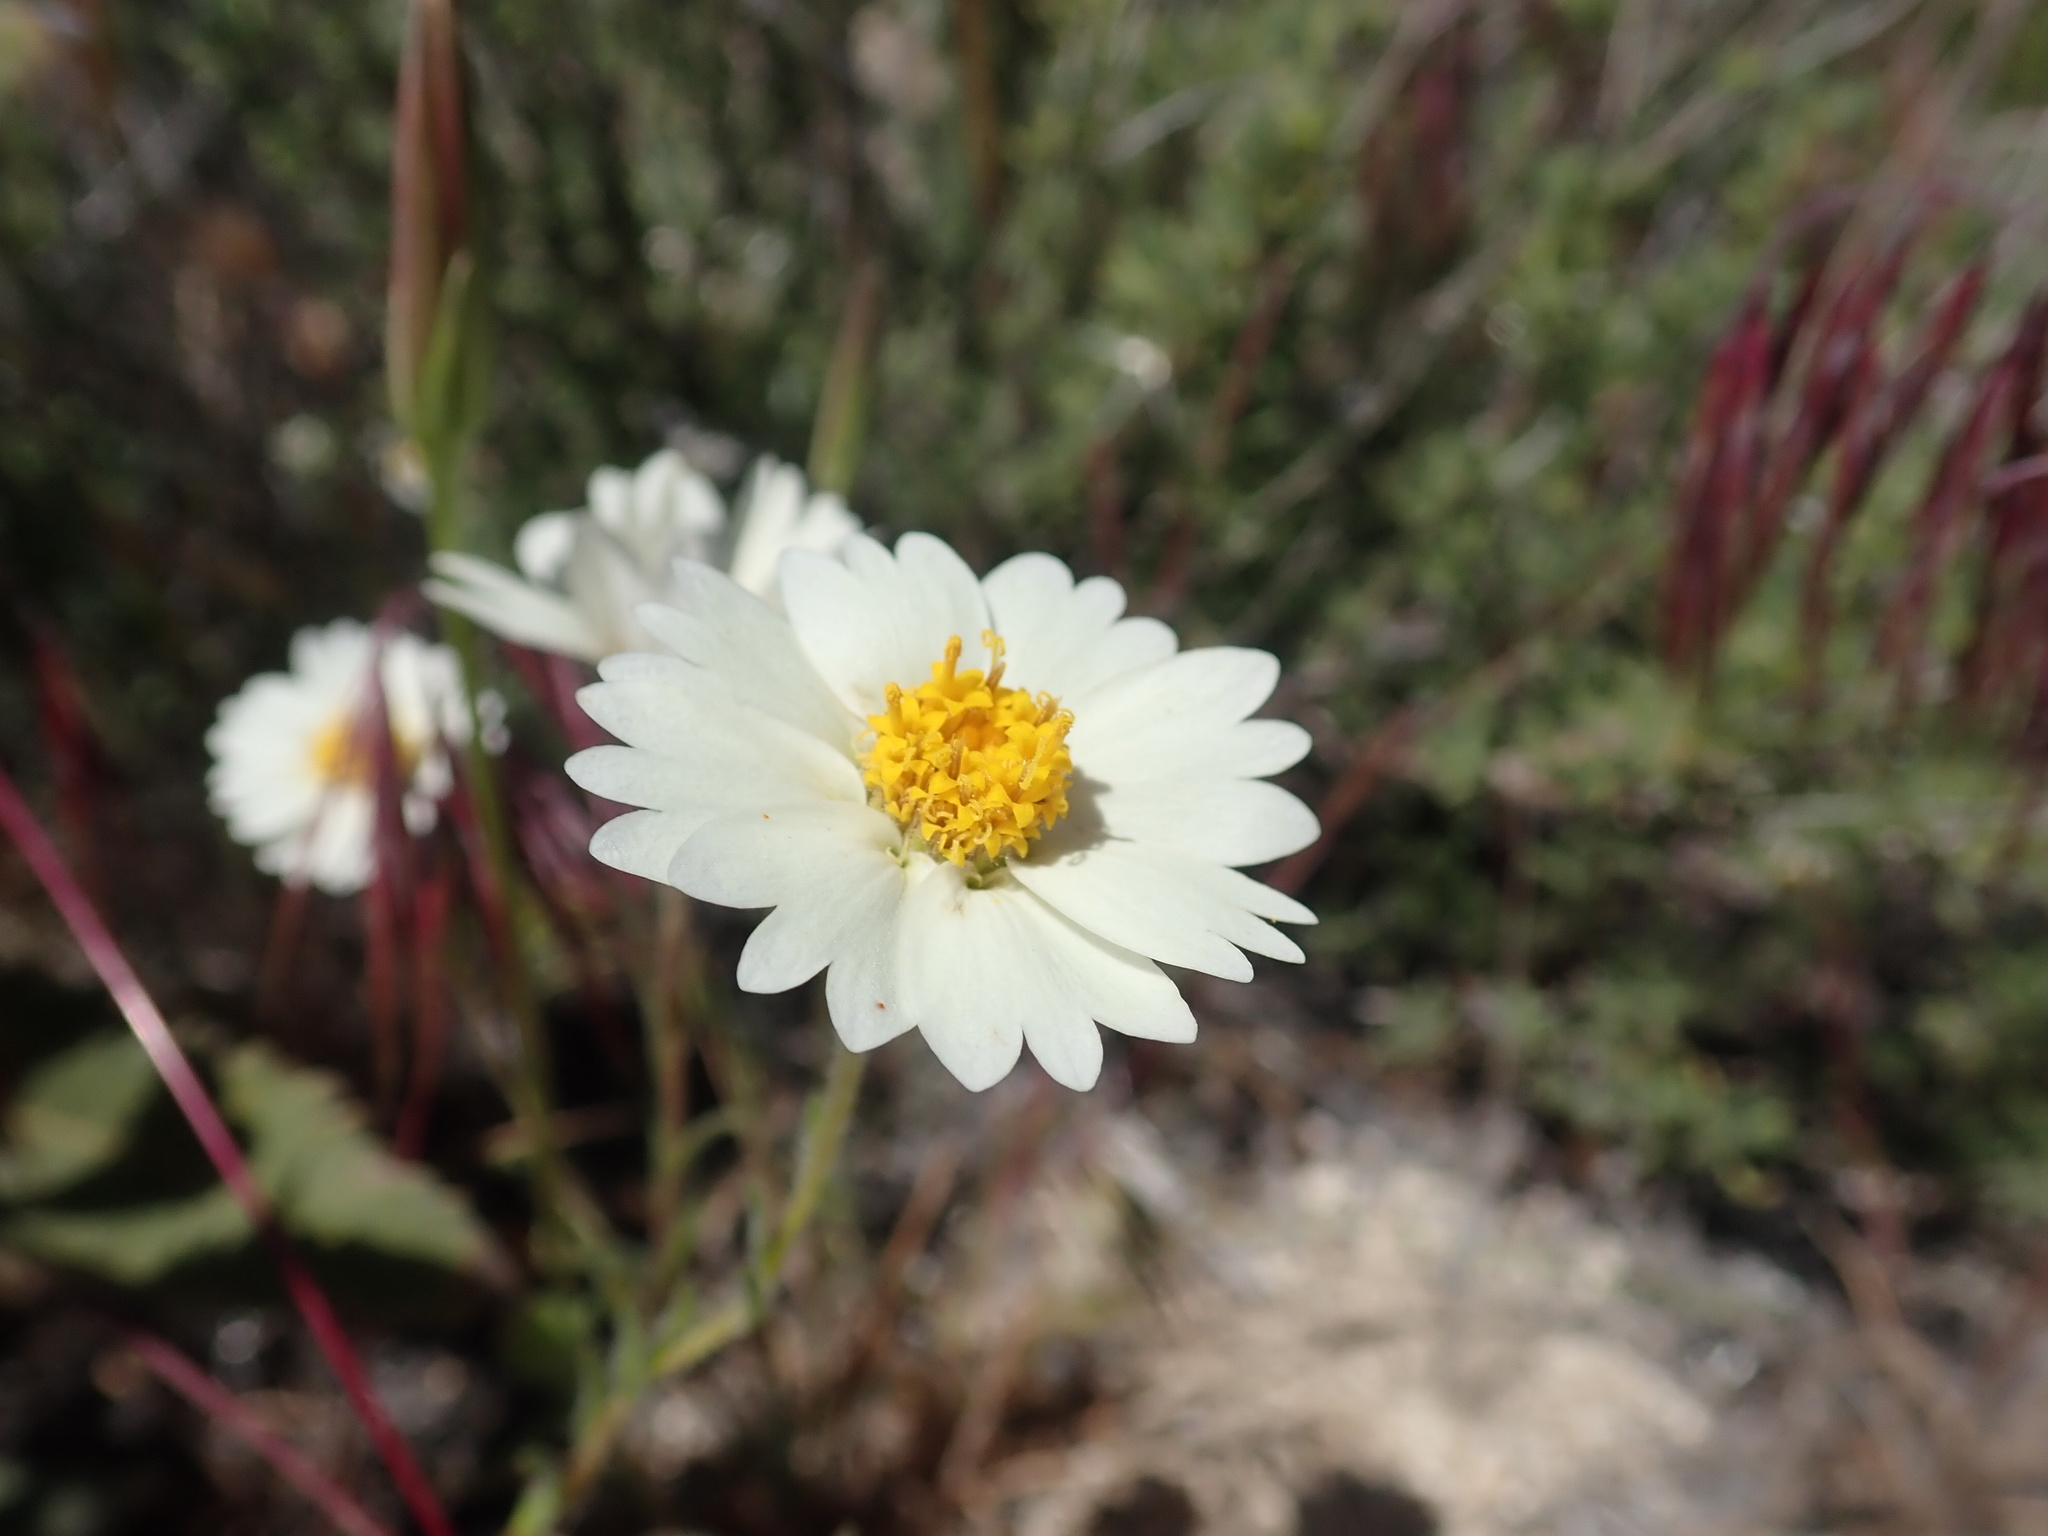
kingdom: Plantae
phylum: Tracheophyta
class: Magnoliopsida
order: Asterales
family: Asteraceae
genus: Layia
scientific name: Layia glandulosa
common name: White layia
